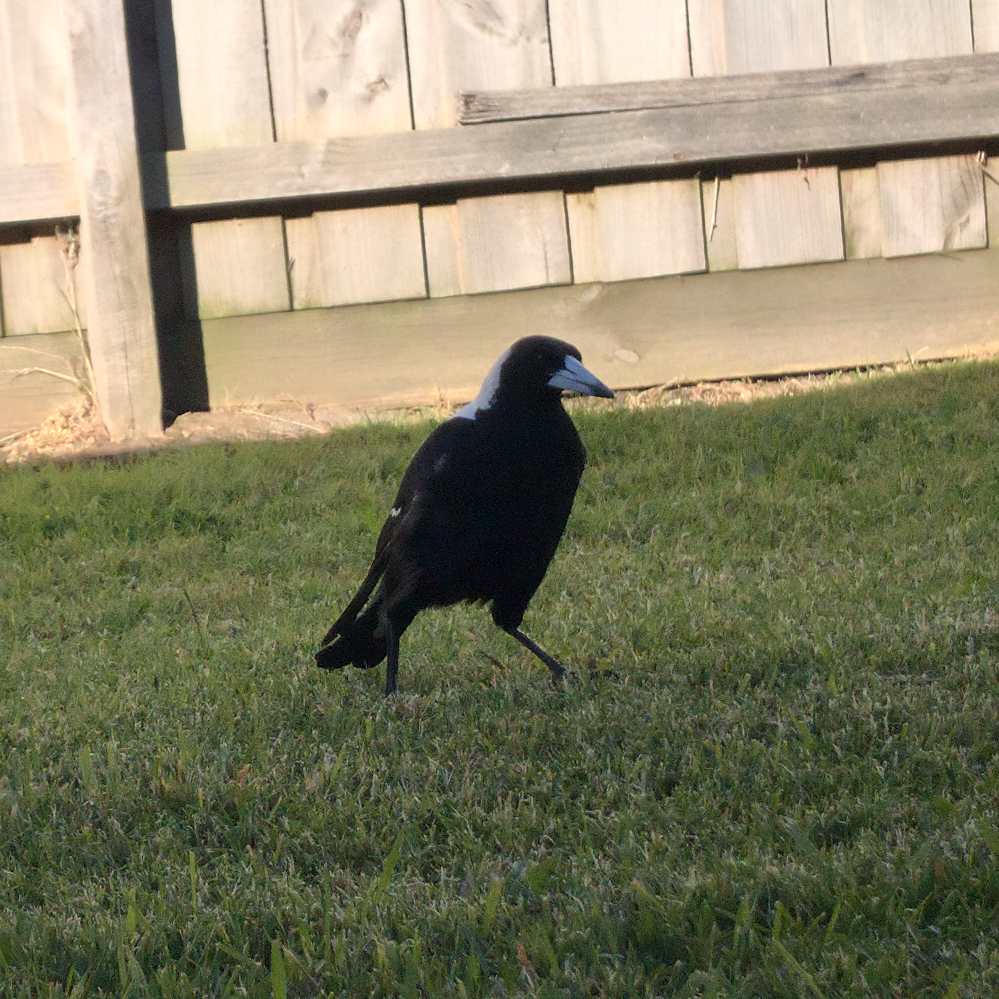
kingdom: Animalia
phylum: Chordata
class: Aves
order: Passeriformes
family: Cracticidae
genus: Gymnorhina
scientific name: Gymnorhina tibicen
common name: Australian magpie
